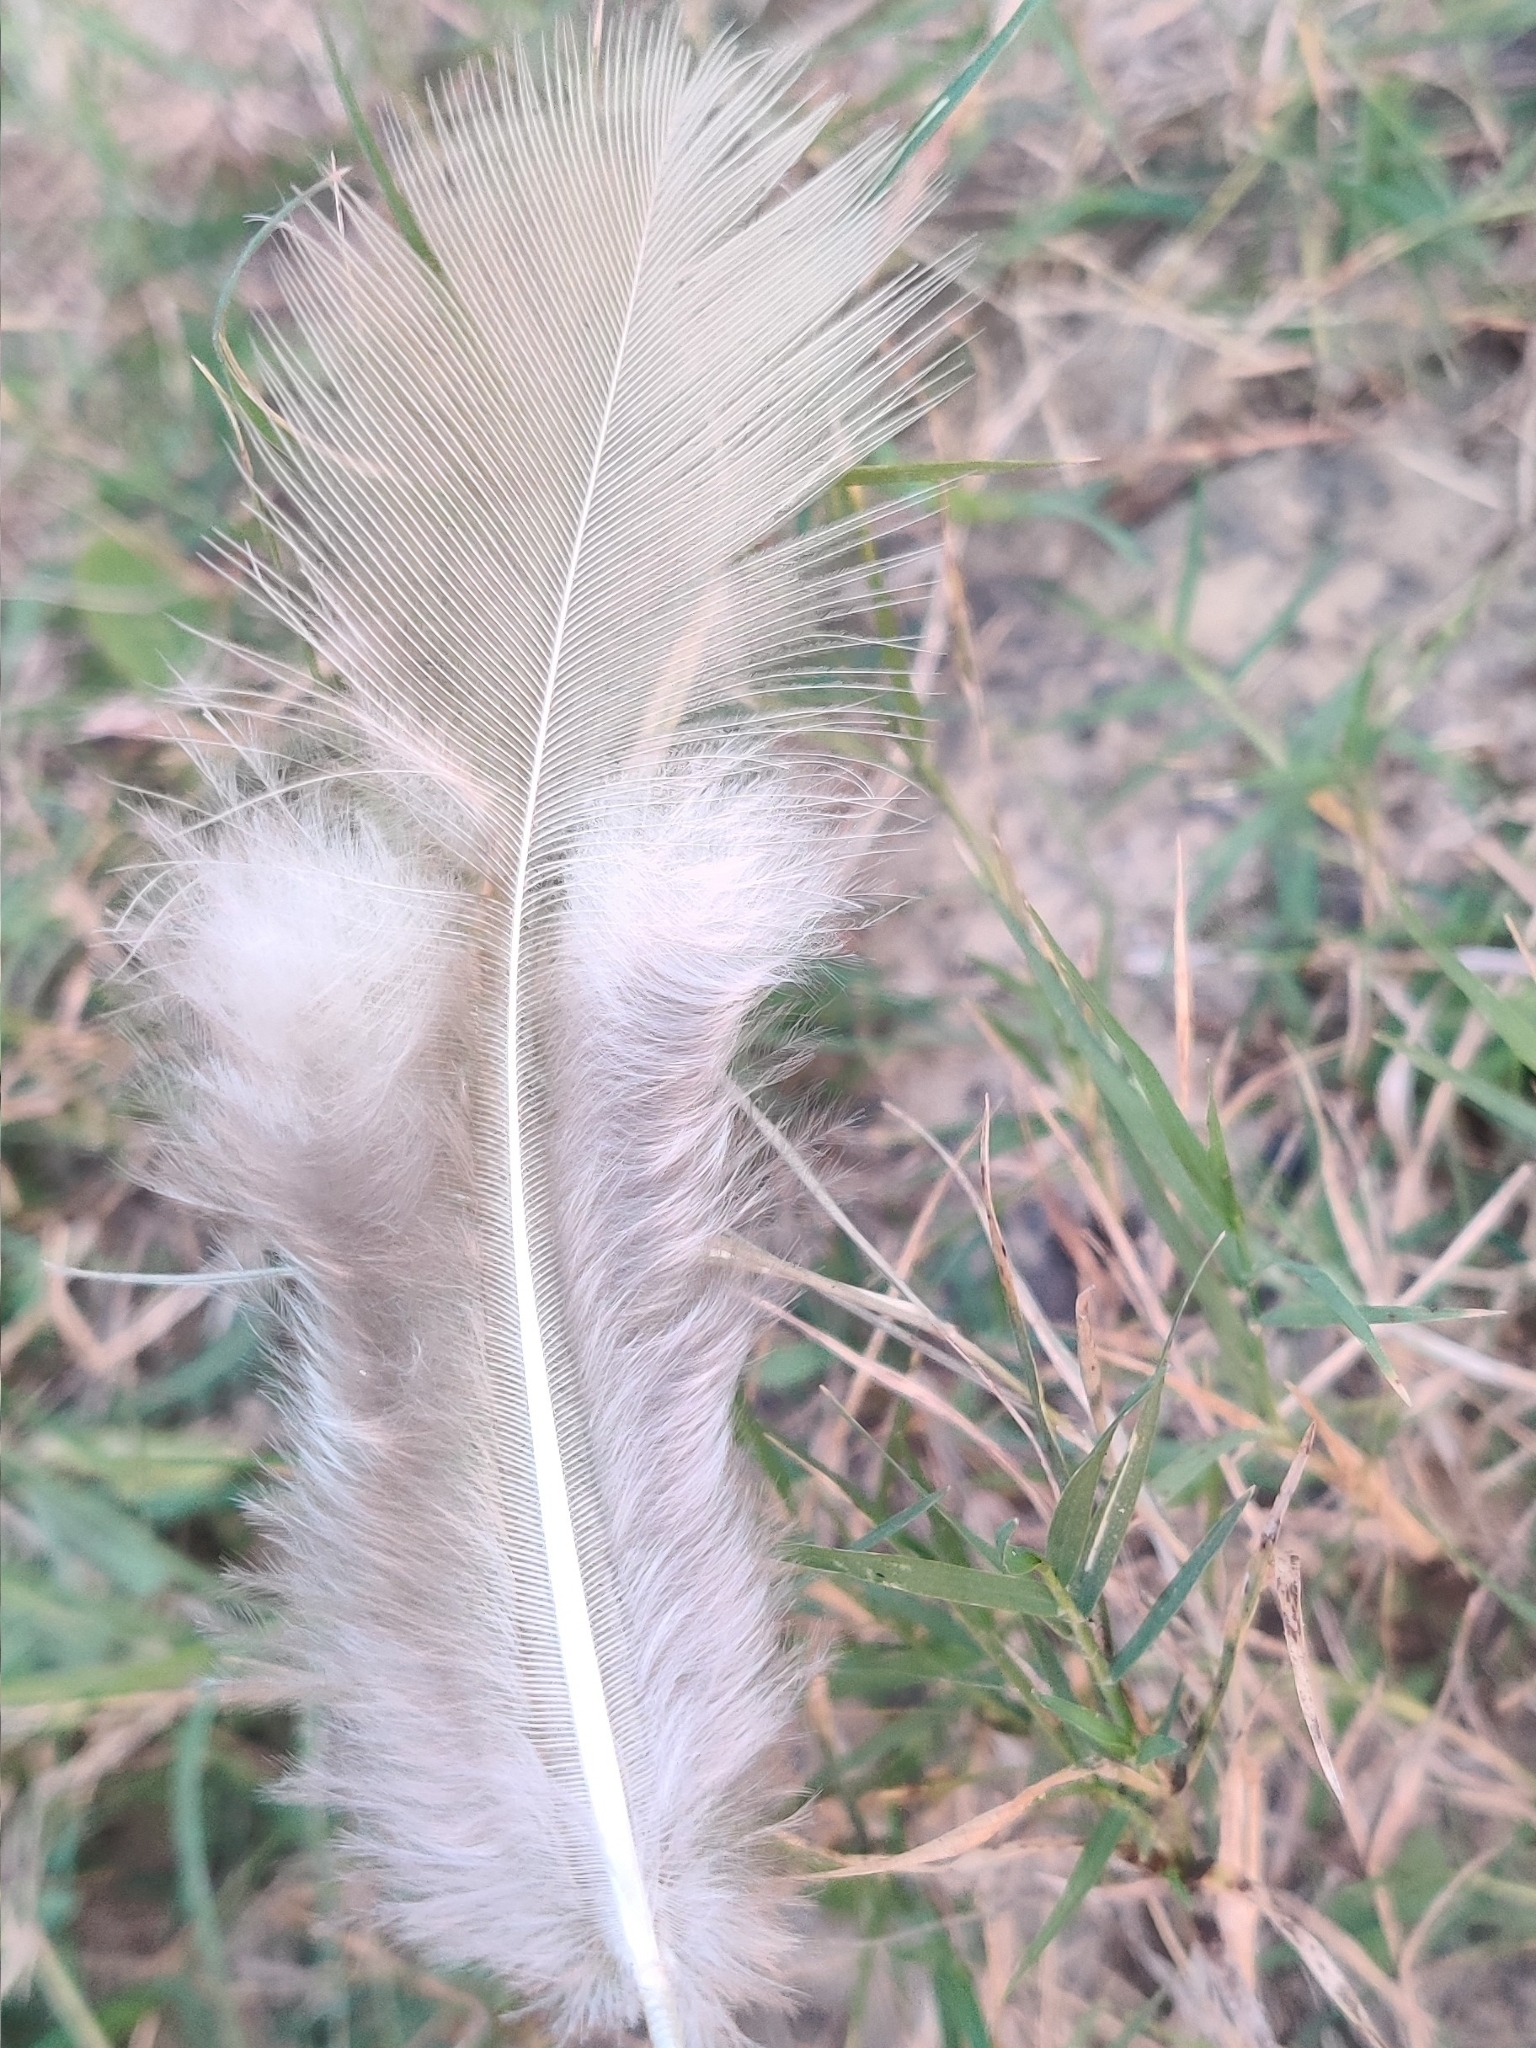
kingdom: Animalia
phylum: Chordata
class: Aves
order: Galliformes
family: Phasianidae
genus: Pavo
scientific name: Pavo cristatus
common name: Indian peafowl
